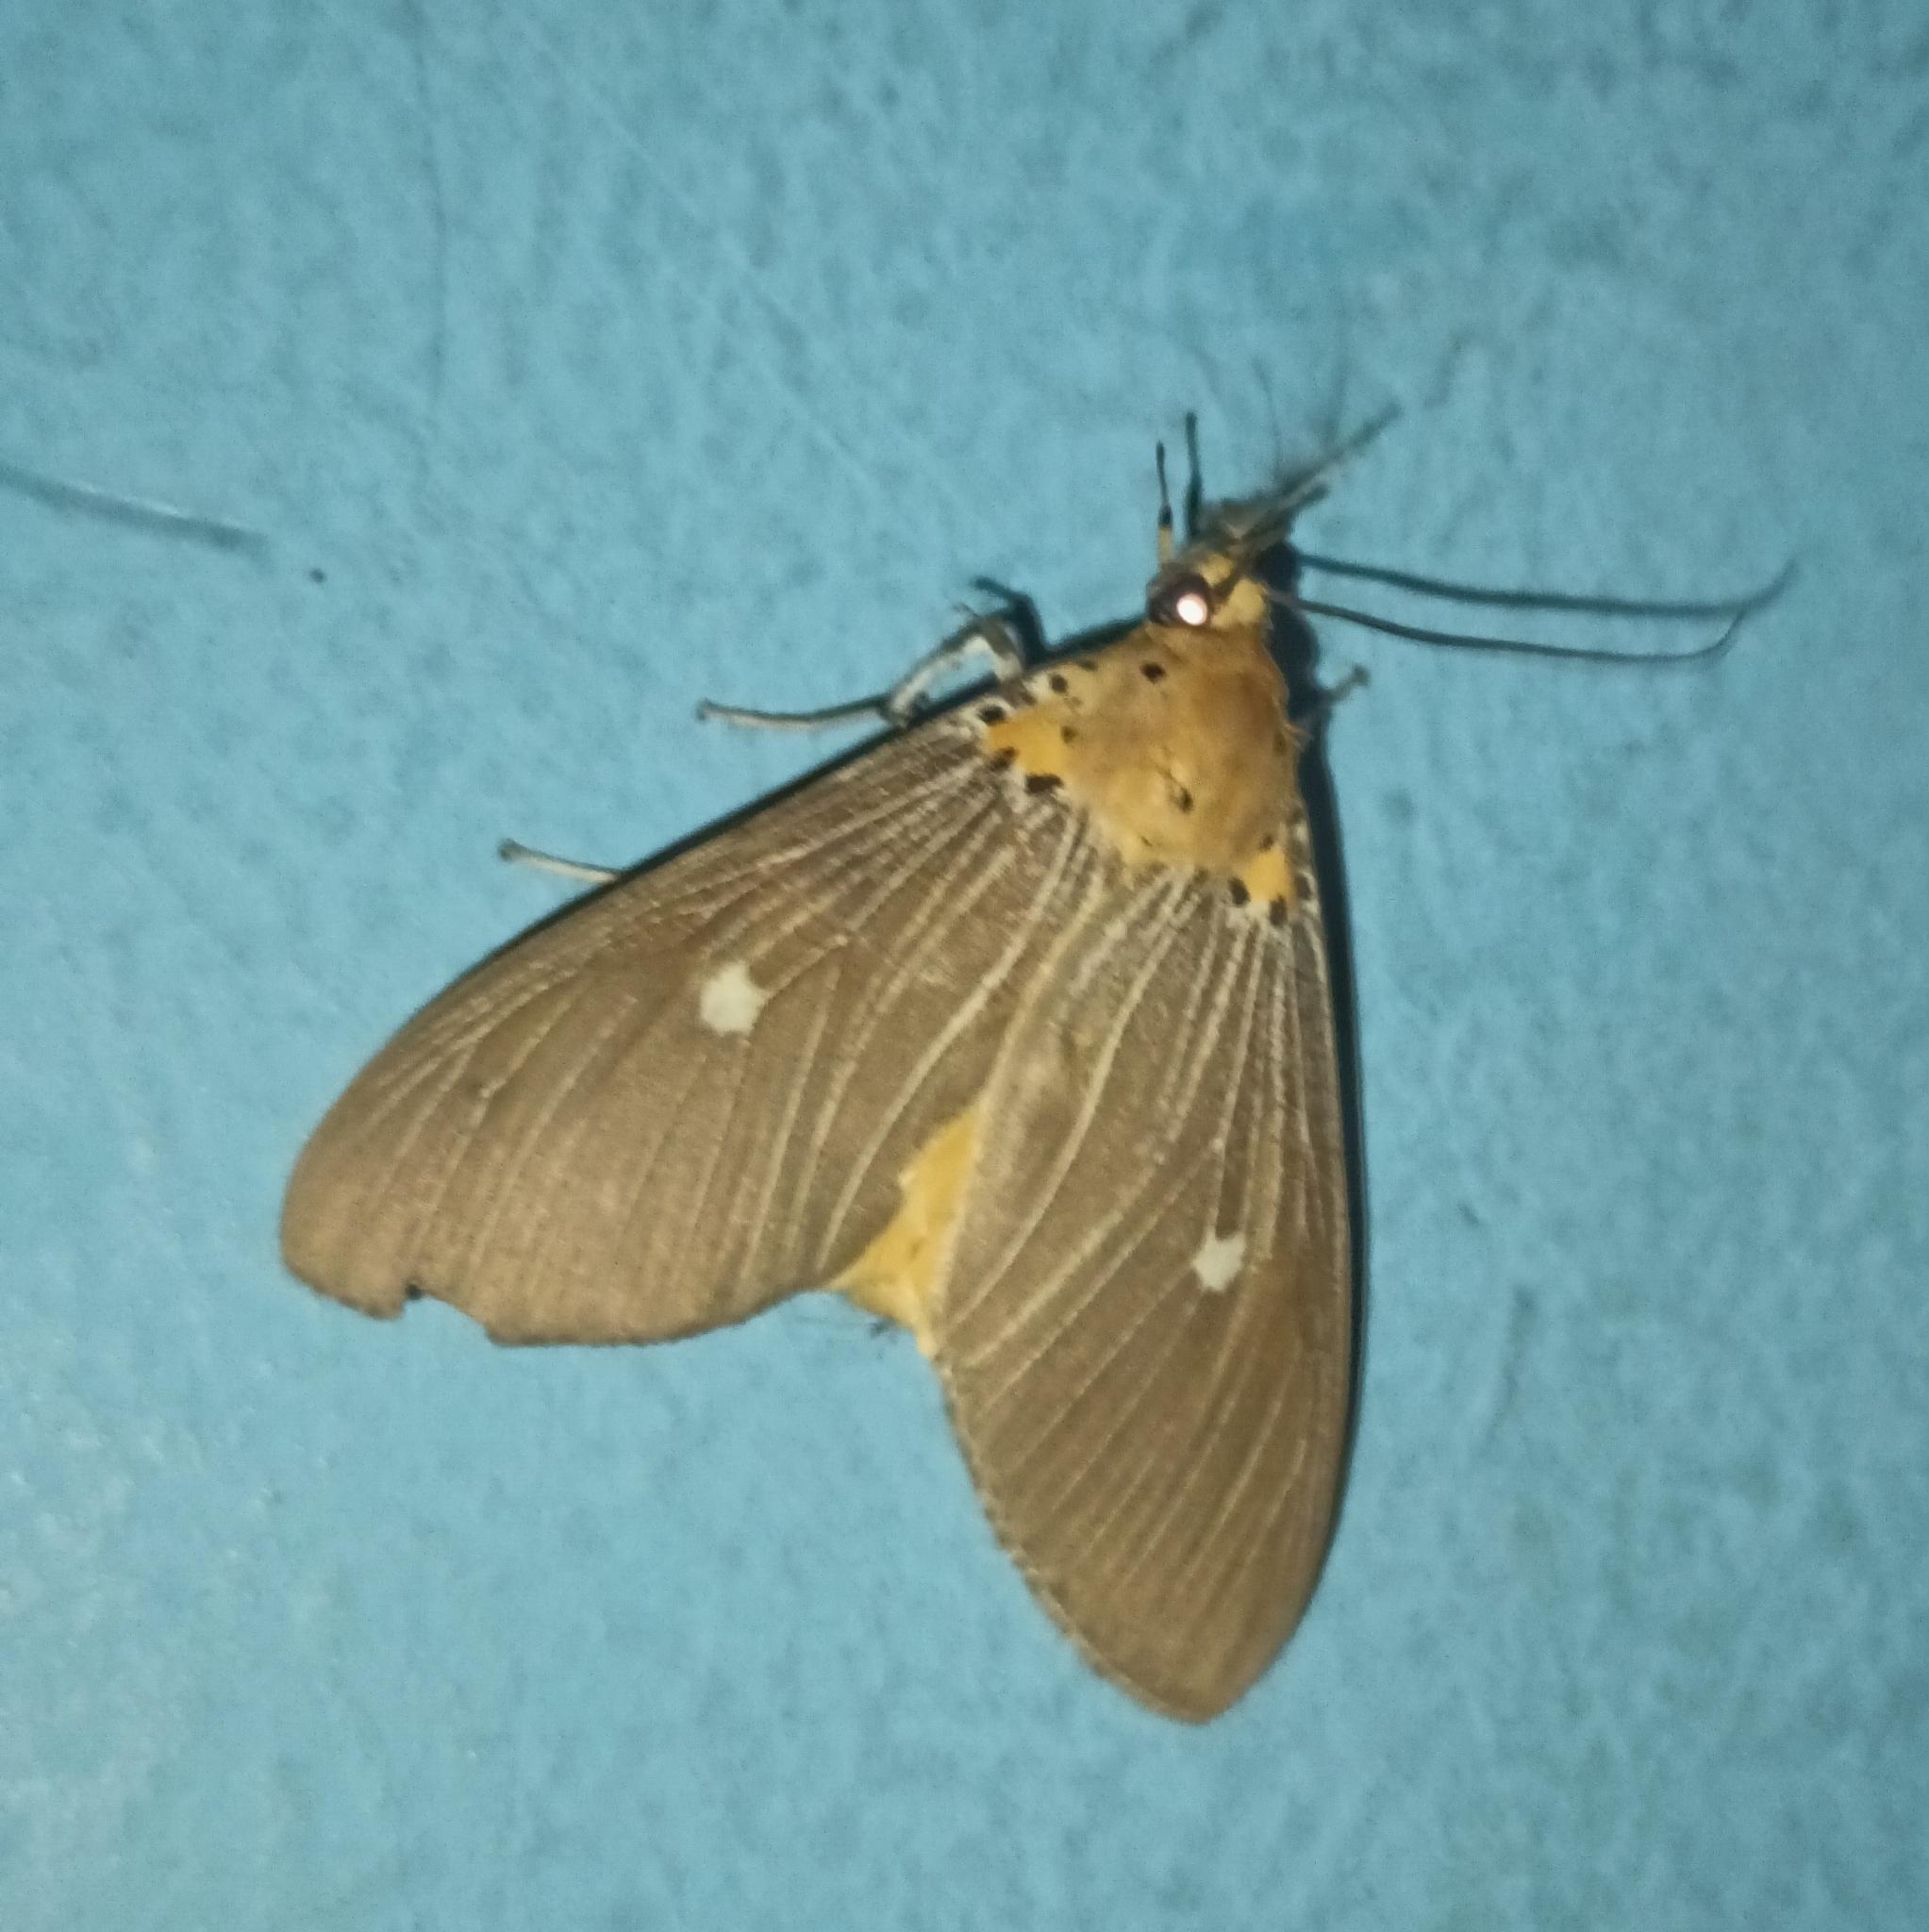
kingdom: Animalia
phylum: Arthropoda
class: Insecta
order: Lepidoptera
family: Erebidae
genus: Asota
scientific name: Asota caricae
